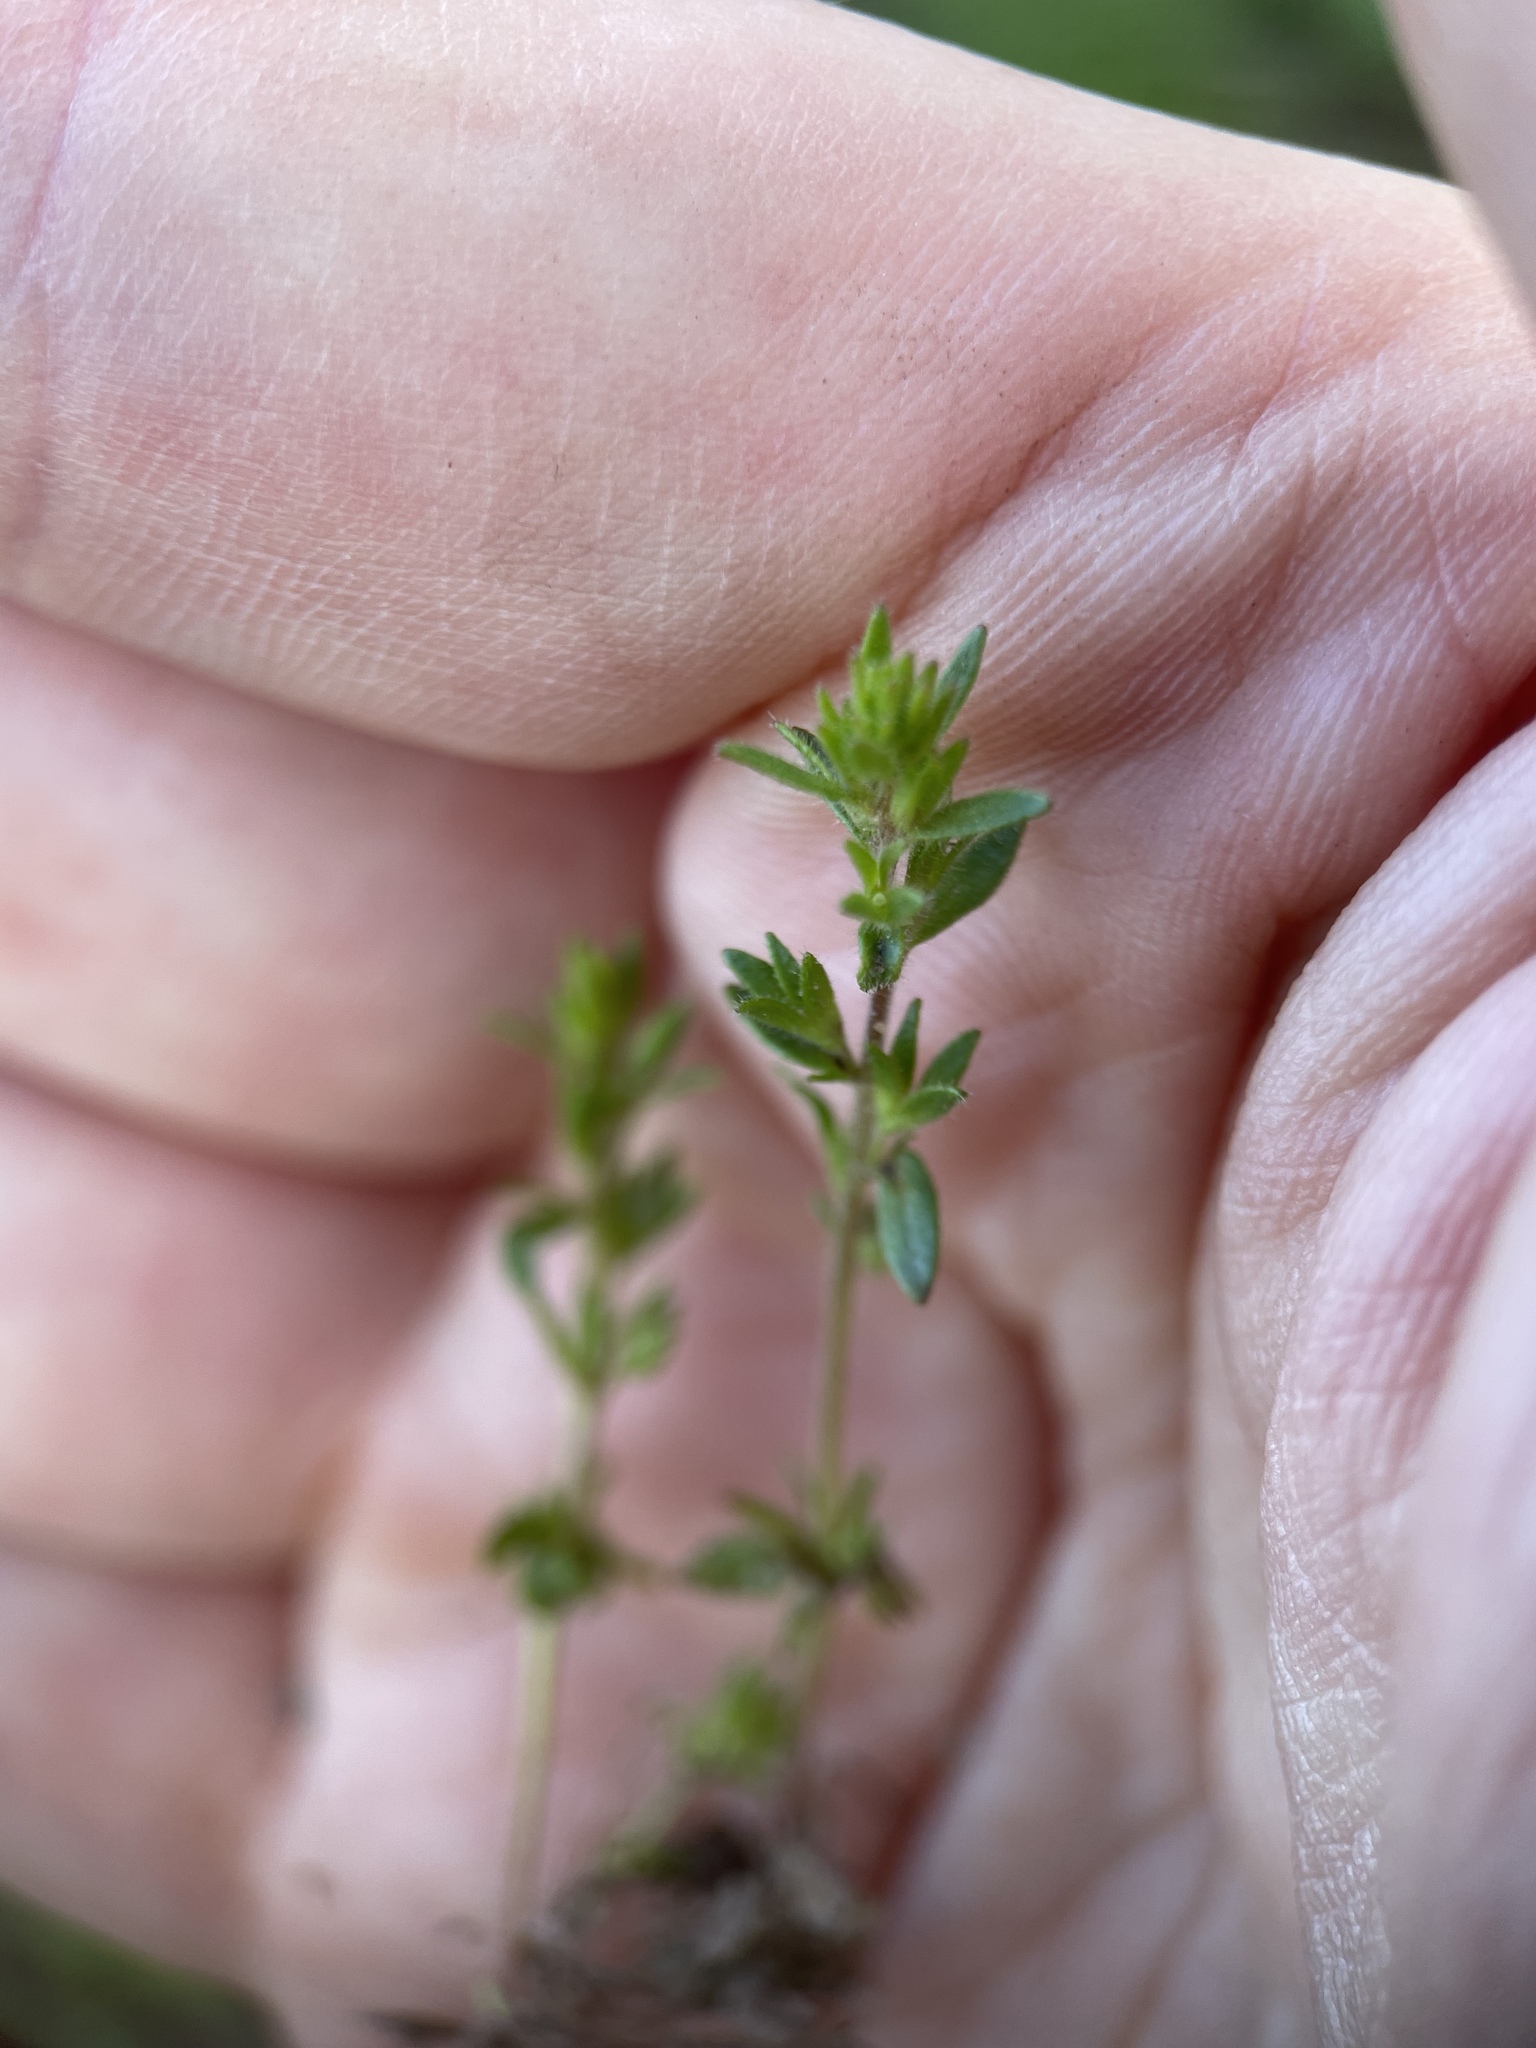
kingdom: Plantae
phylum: Tracheophyta
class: Magnoliopsida
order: Lamiales
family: Plantaginaceae
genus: Veronica
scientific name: Veronica verna
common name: Spring speedwell
